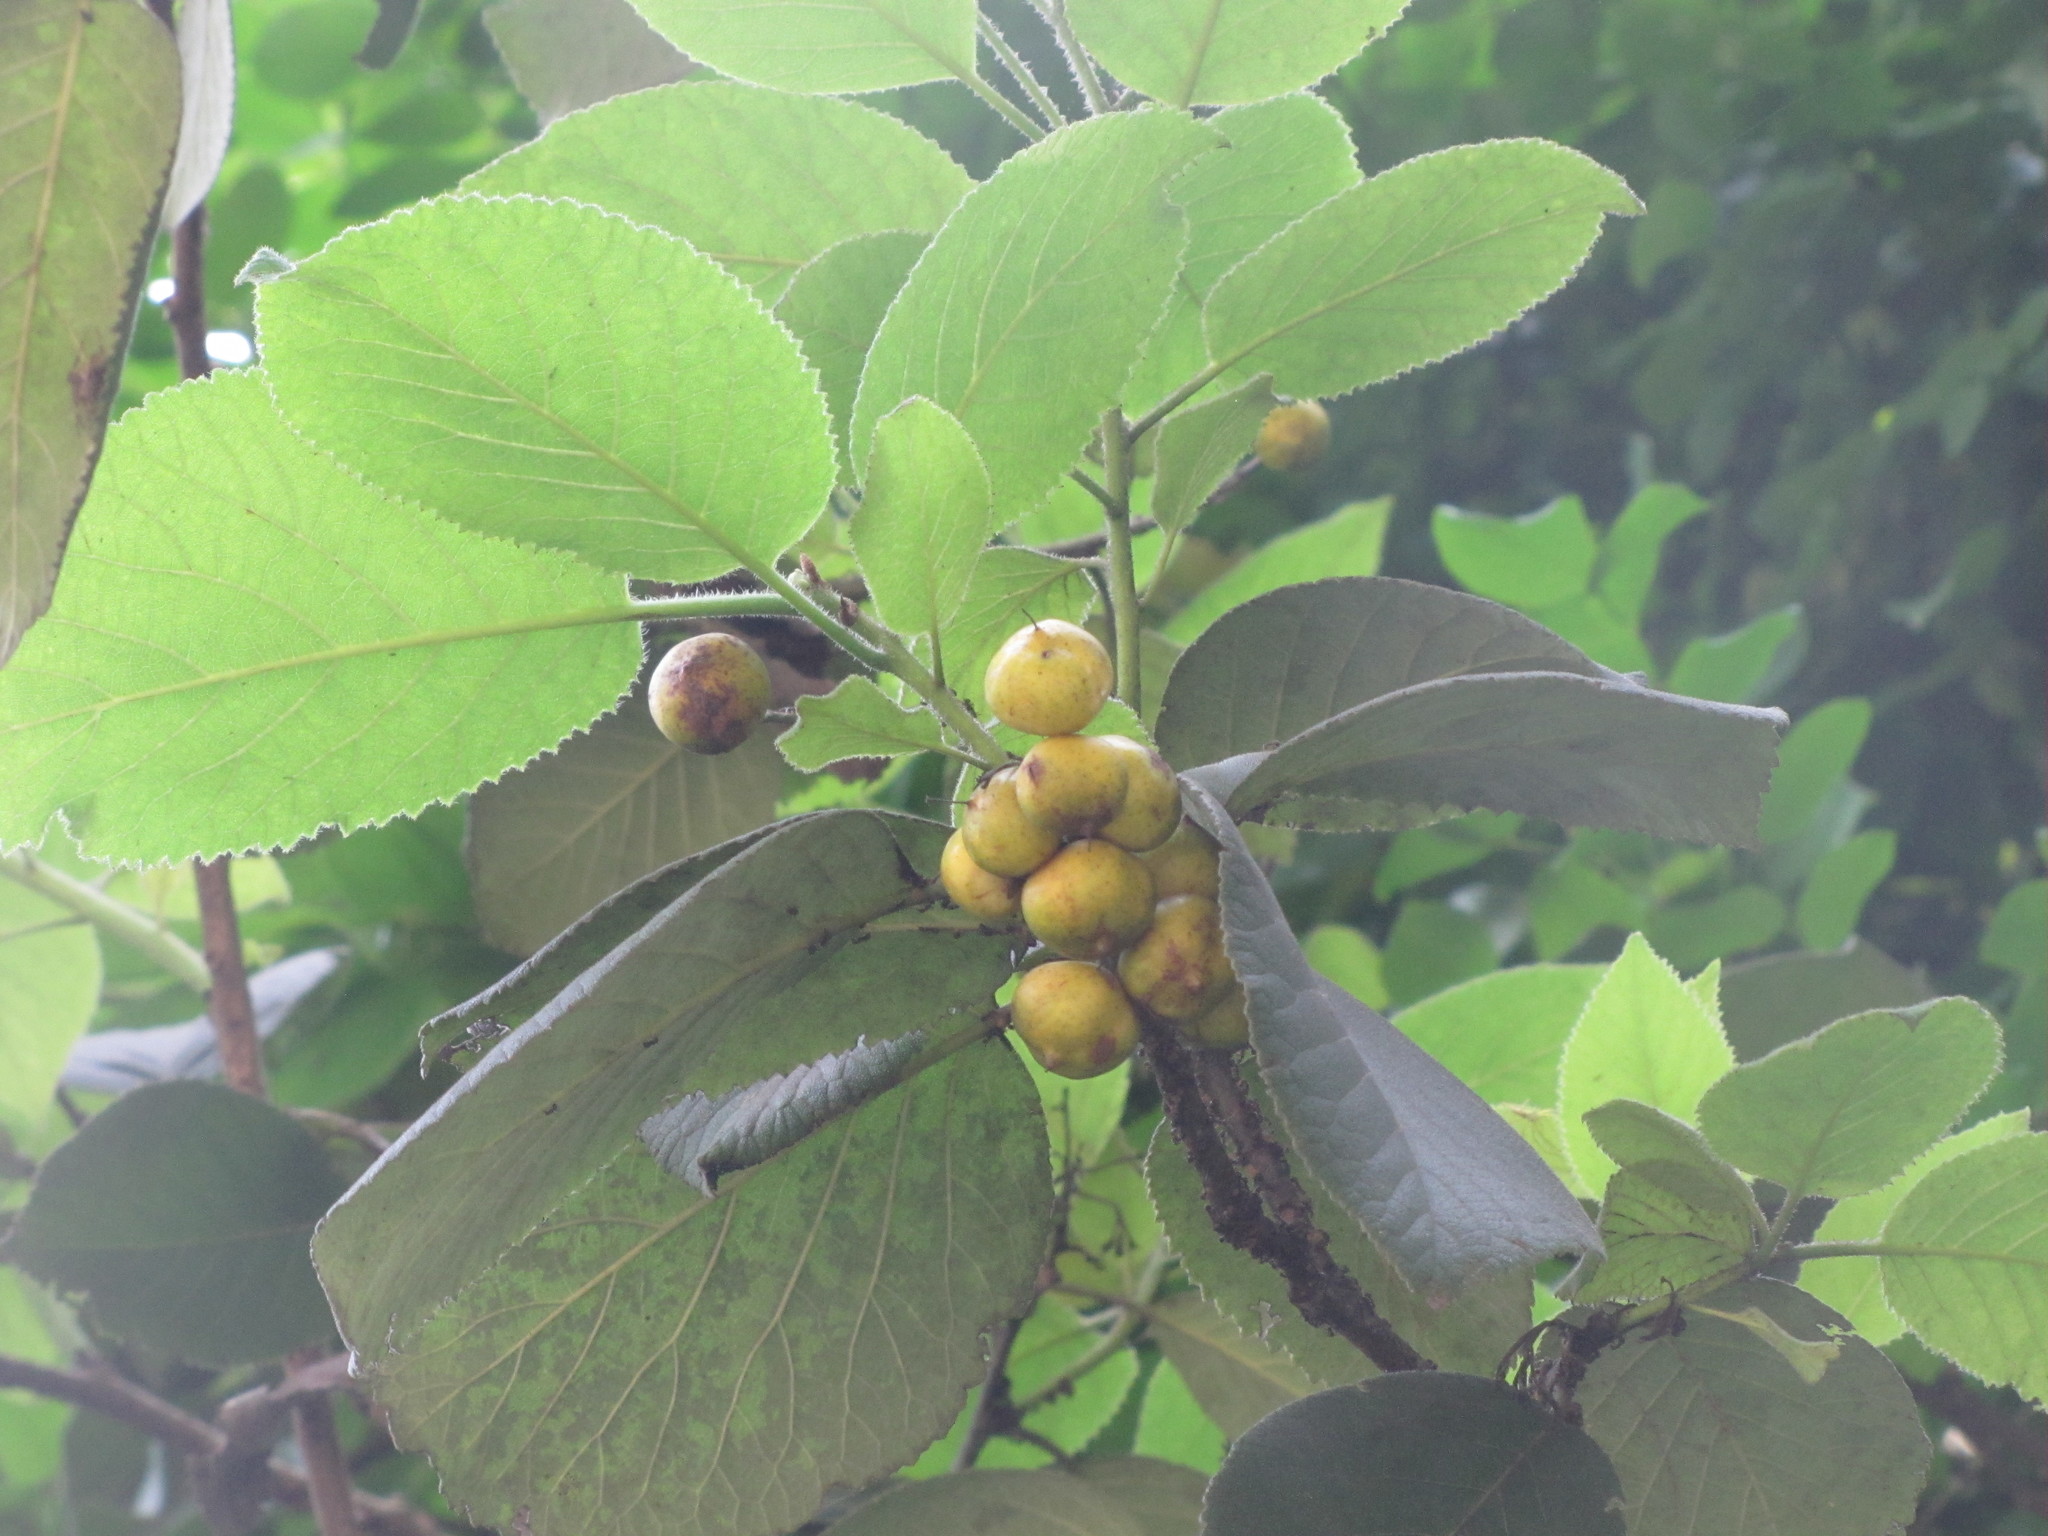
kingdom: Plantae
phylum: Tracheophyta
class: Magnoliopsida
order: Fagales
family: Juglandaceae
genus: Juglans
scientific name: Juglans mandshurica
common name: Manchurian walnut
